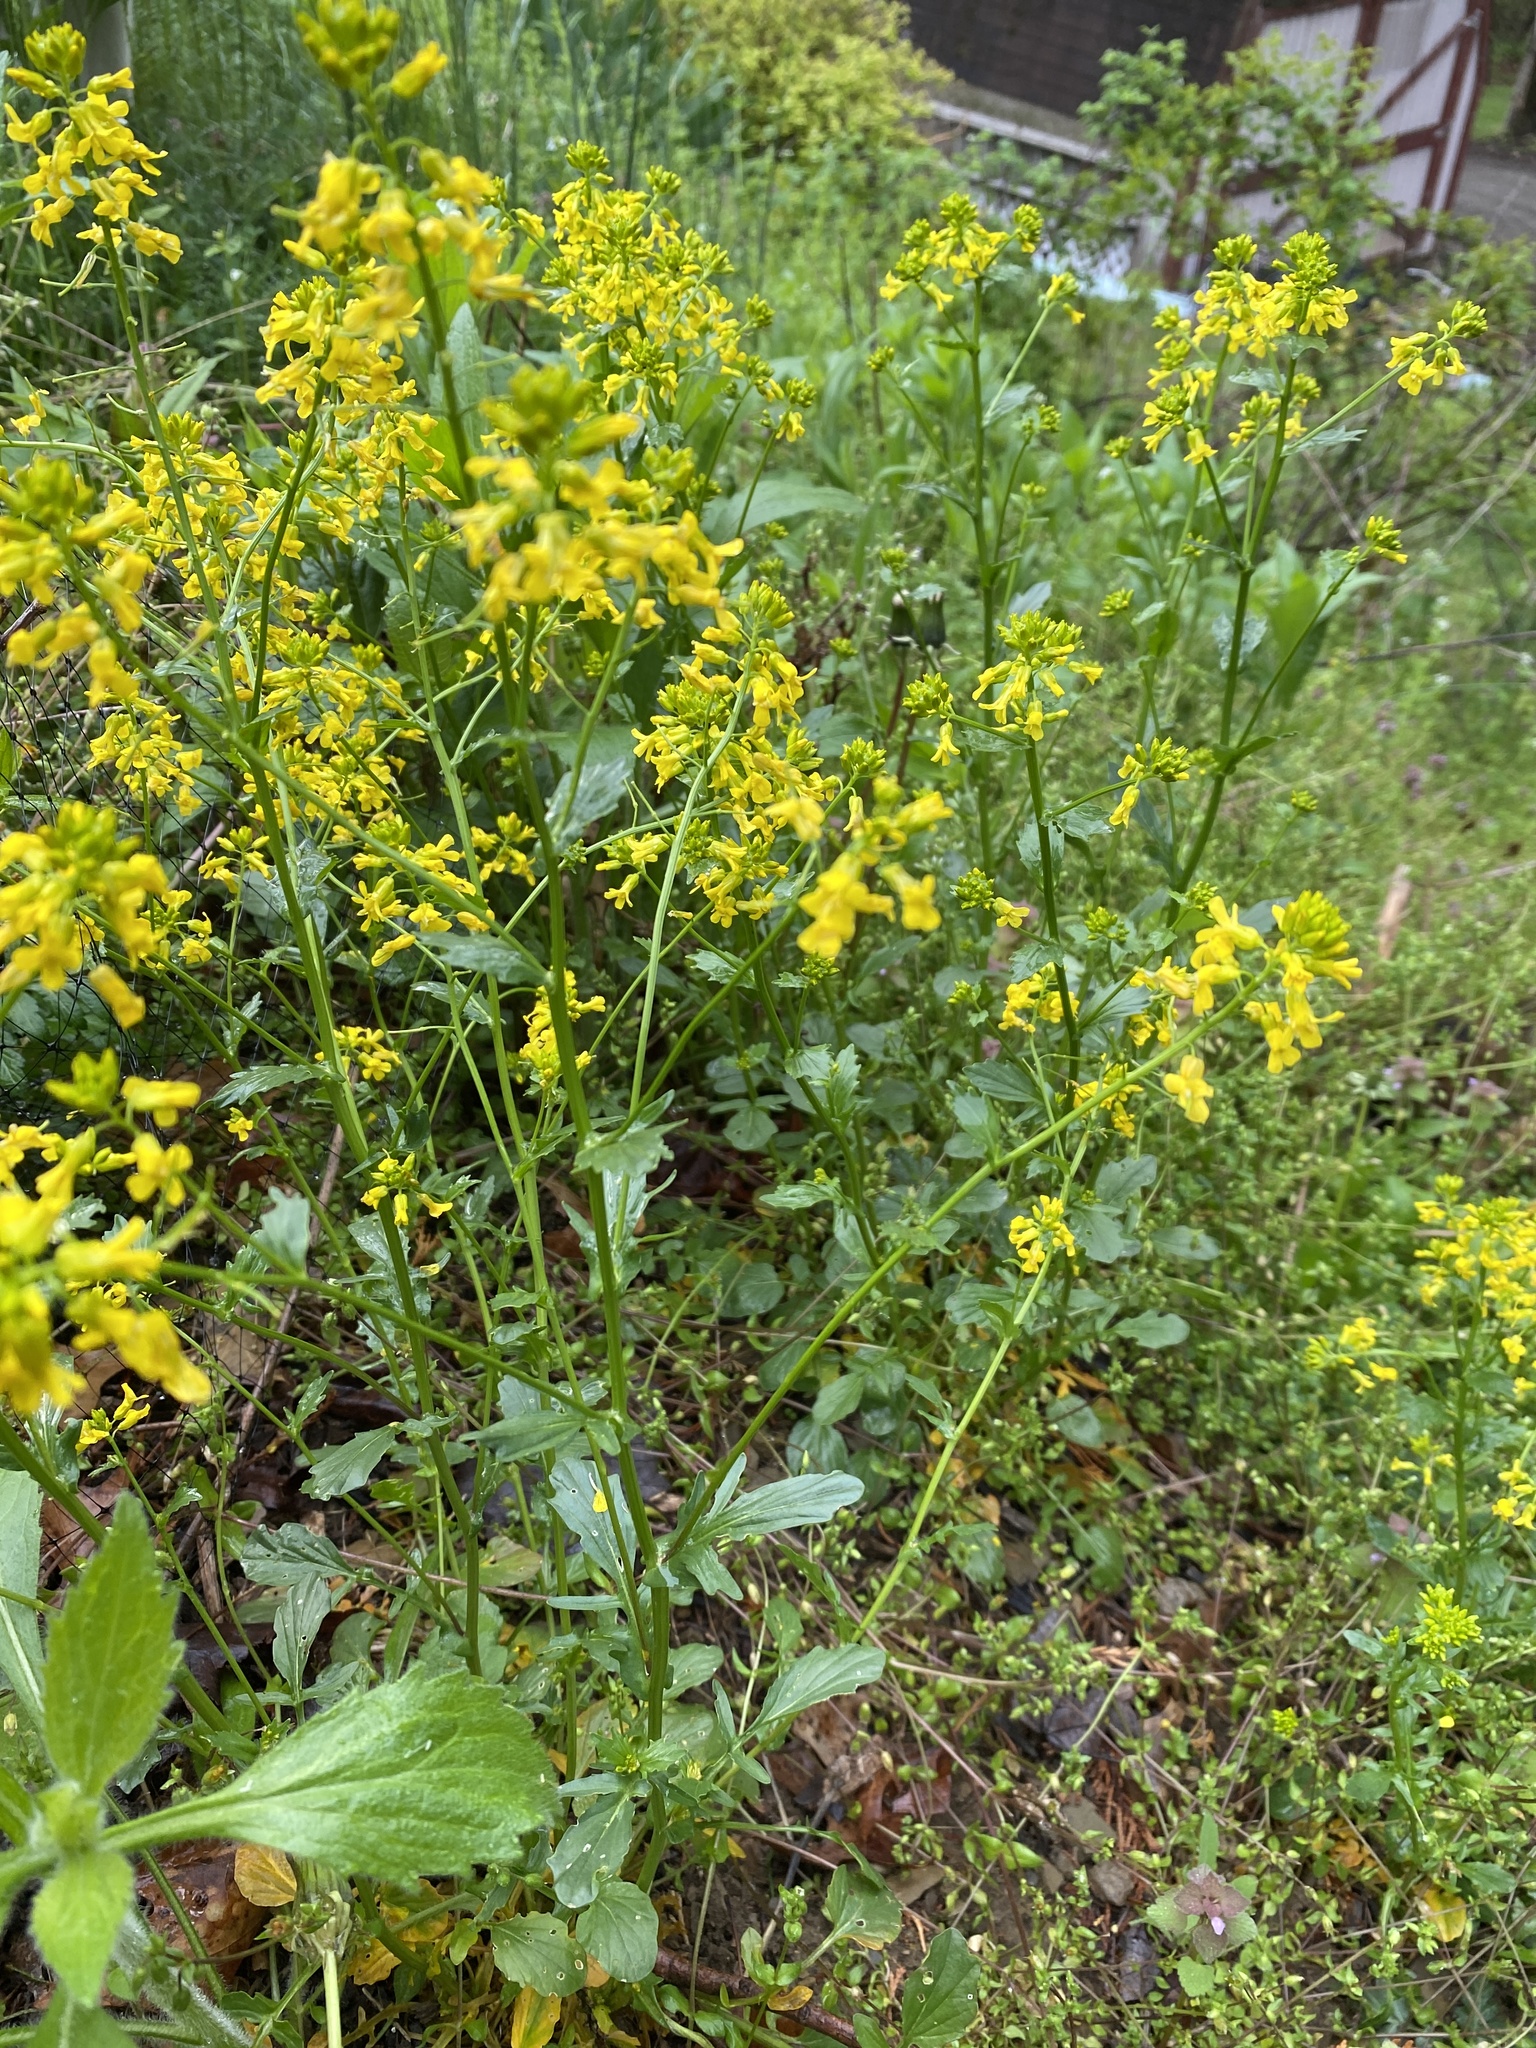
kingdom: Plantae
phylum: Tracheophyta
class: Magnoliopsida
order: Brassicales
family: Brassicaceae
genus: Barbarea
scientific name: Barbarea vulgaris
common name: Cressy-greens
